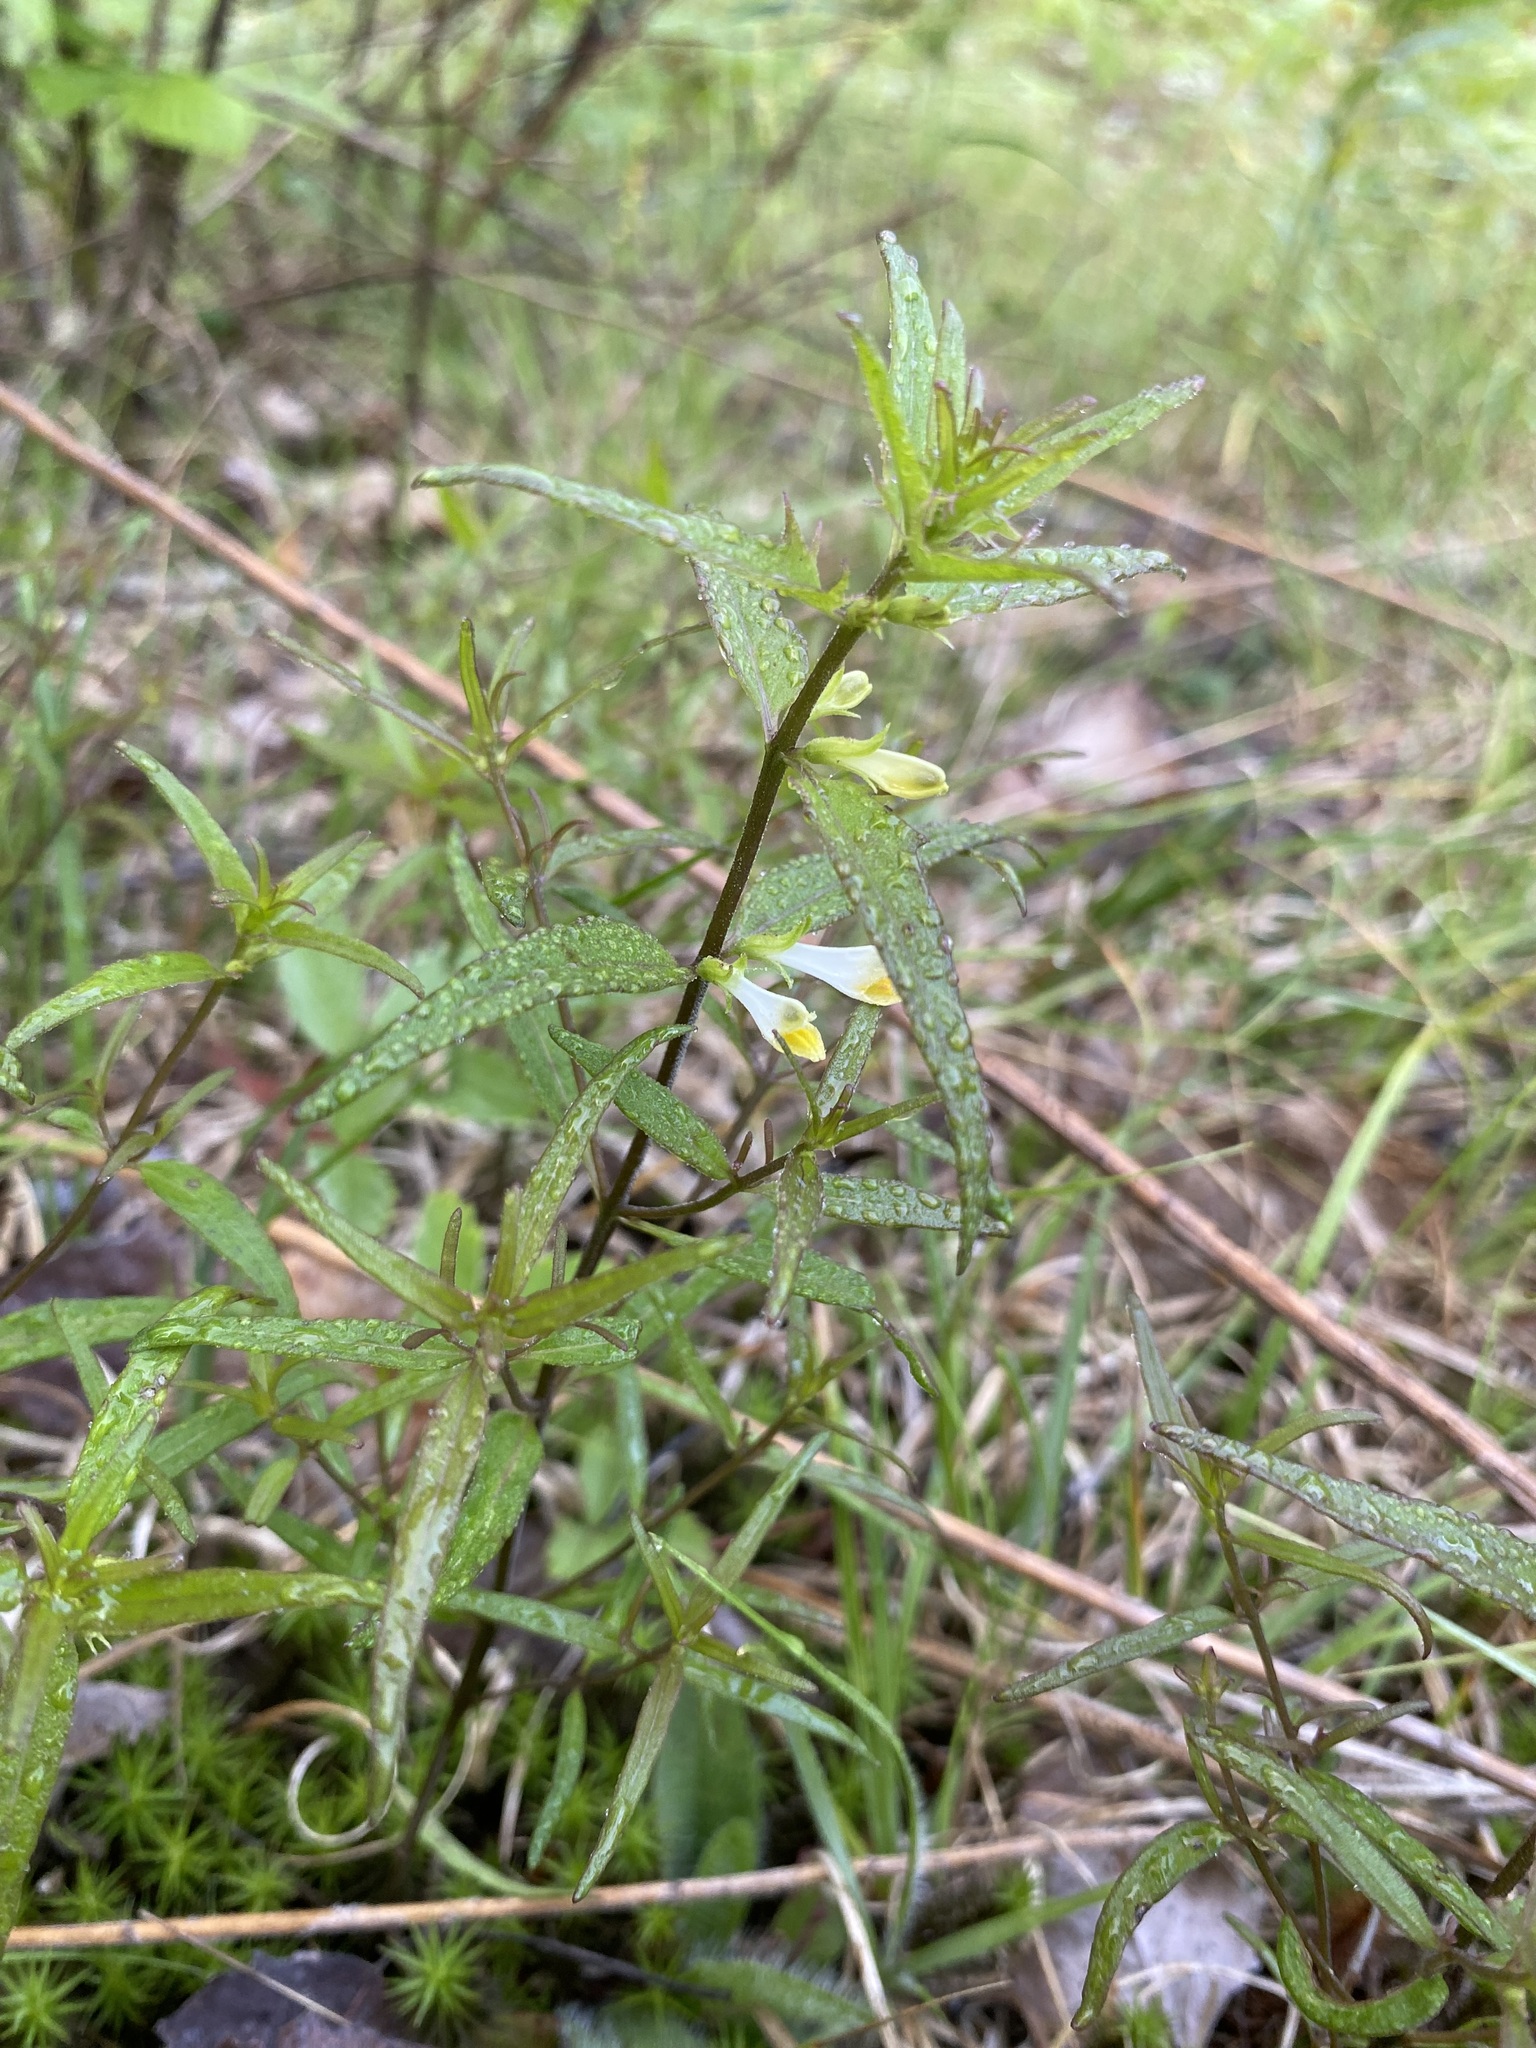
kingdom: Plantae
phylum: Tracheophyta
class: Magnoliopsida
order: Lamiales
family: Orobanchaceae
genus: Melampyrum
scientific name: Melampyrum lineare
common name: American cow-wheat
